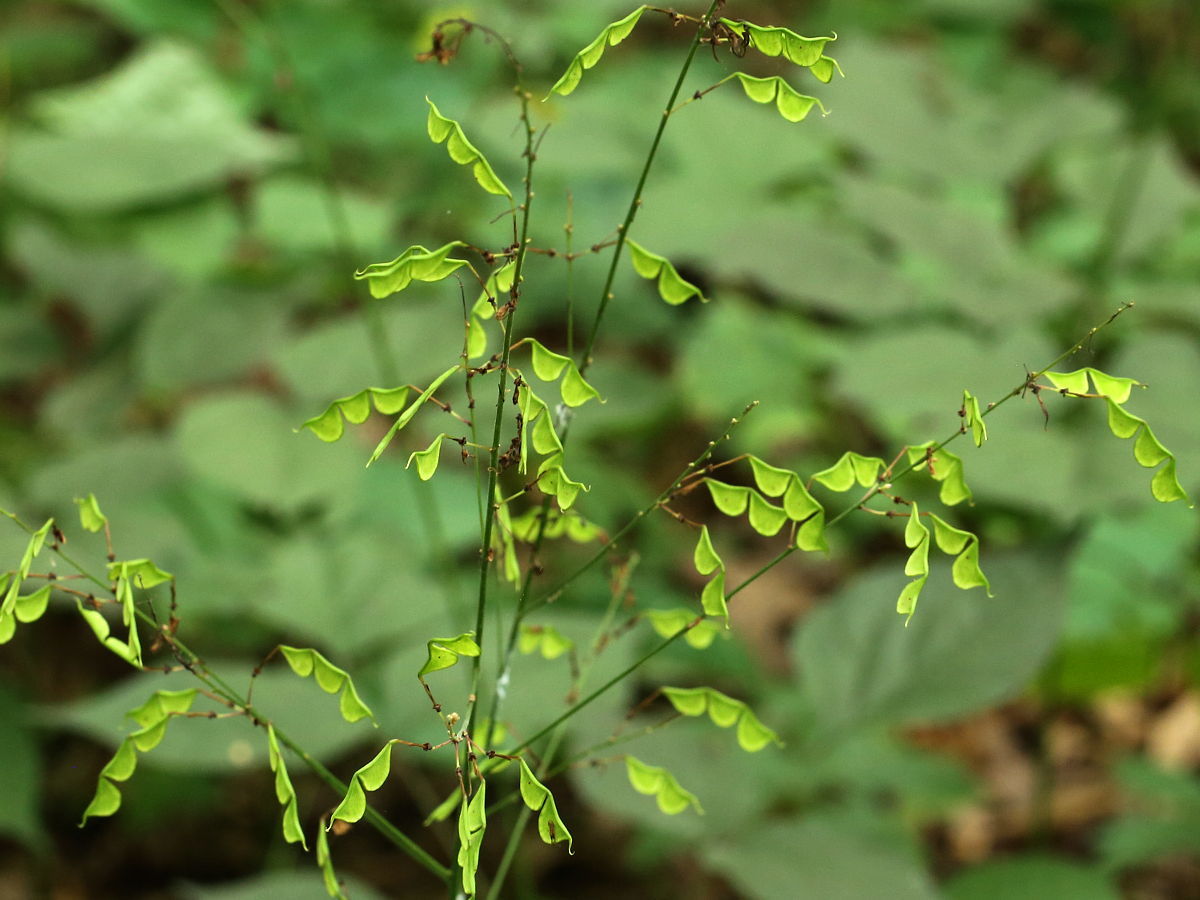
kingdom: Plantae
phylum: Tracheophyta
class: Magnoliopsida
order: Fabales
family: Fabaceae
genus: Hylodesmum
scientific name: Hylodesmum glutinosum
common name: Clustered-leaved tick-trefoil
